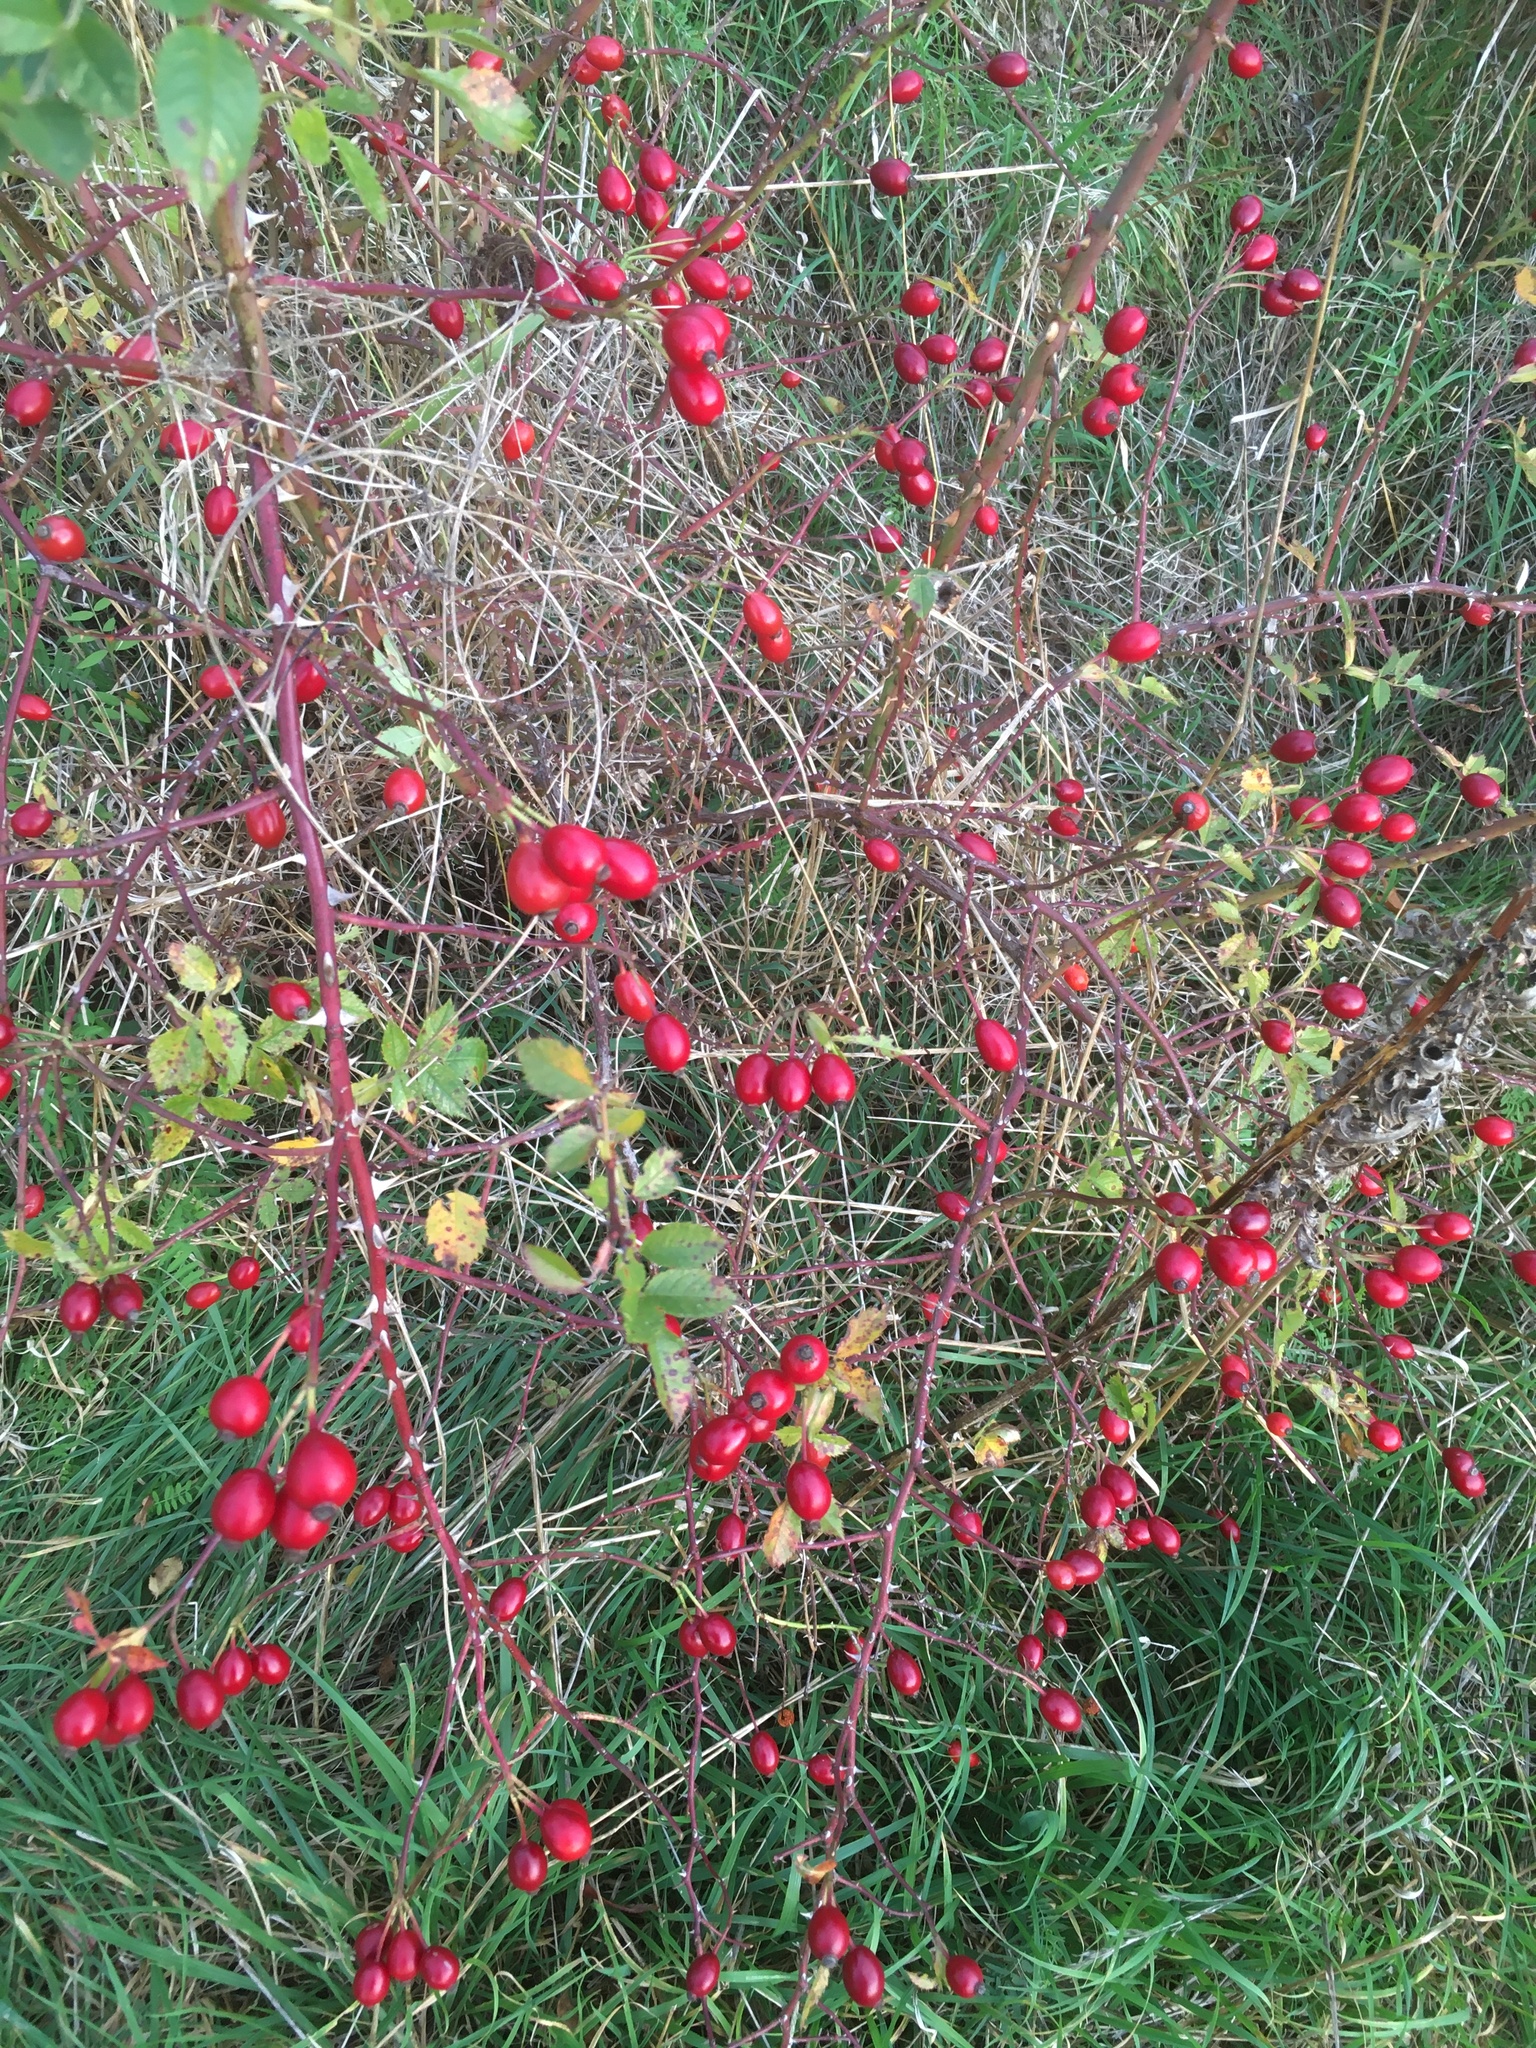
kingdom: Plantae
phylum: Tracheophyta
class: Magnoliopsida
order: Rosales
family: Rosaceae
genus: Rosa
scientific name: Rosa canina
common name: Dog rose
